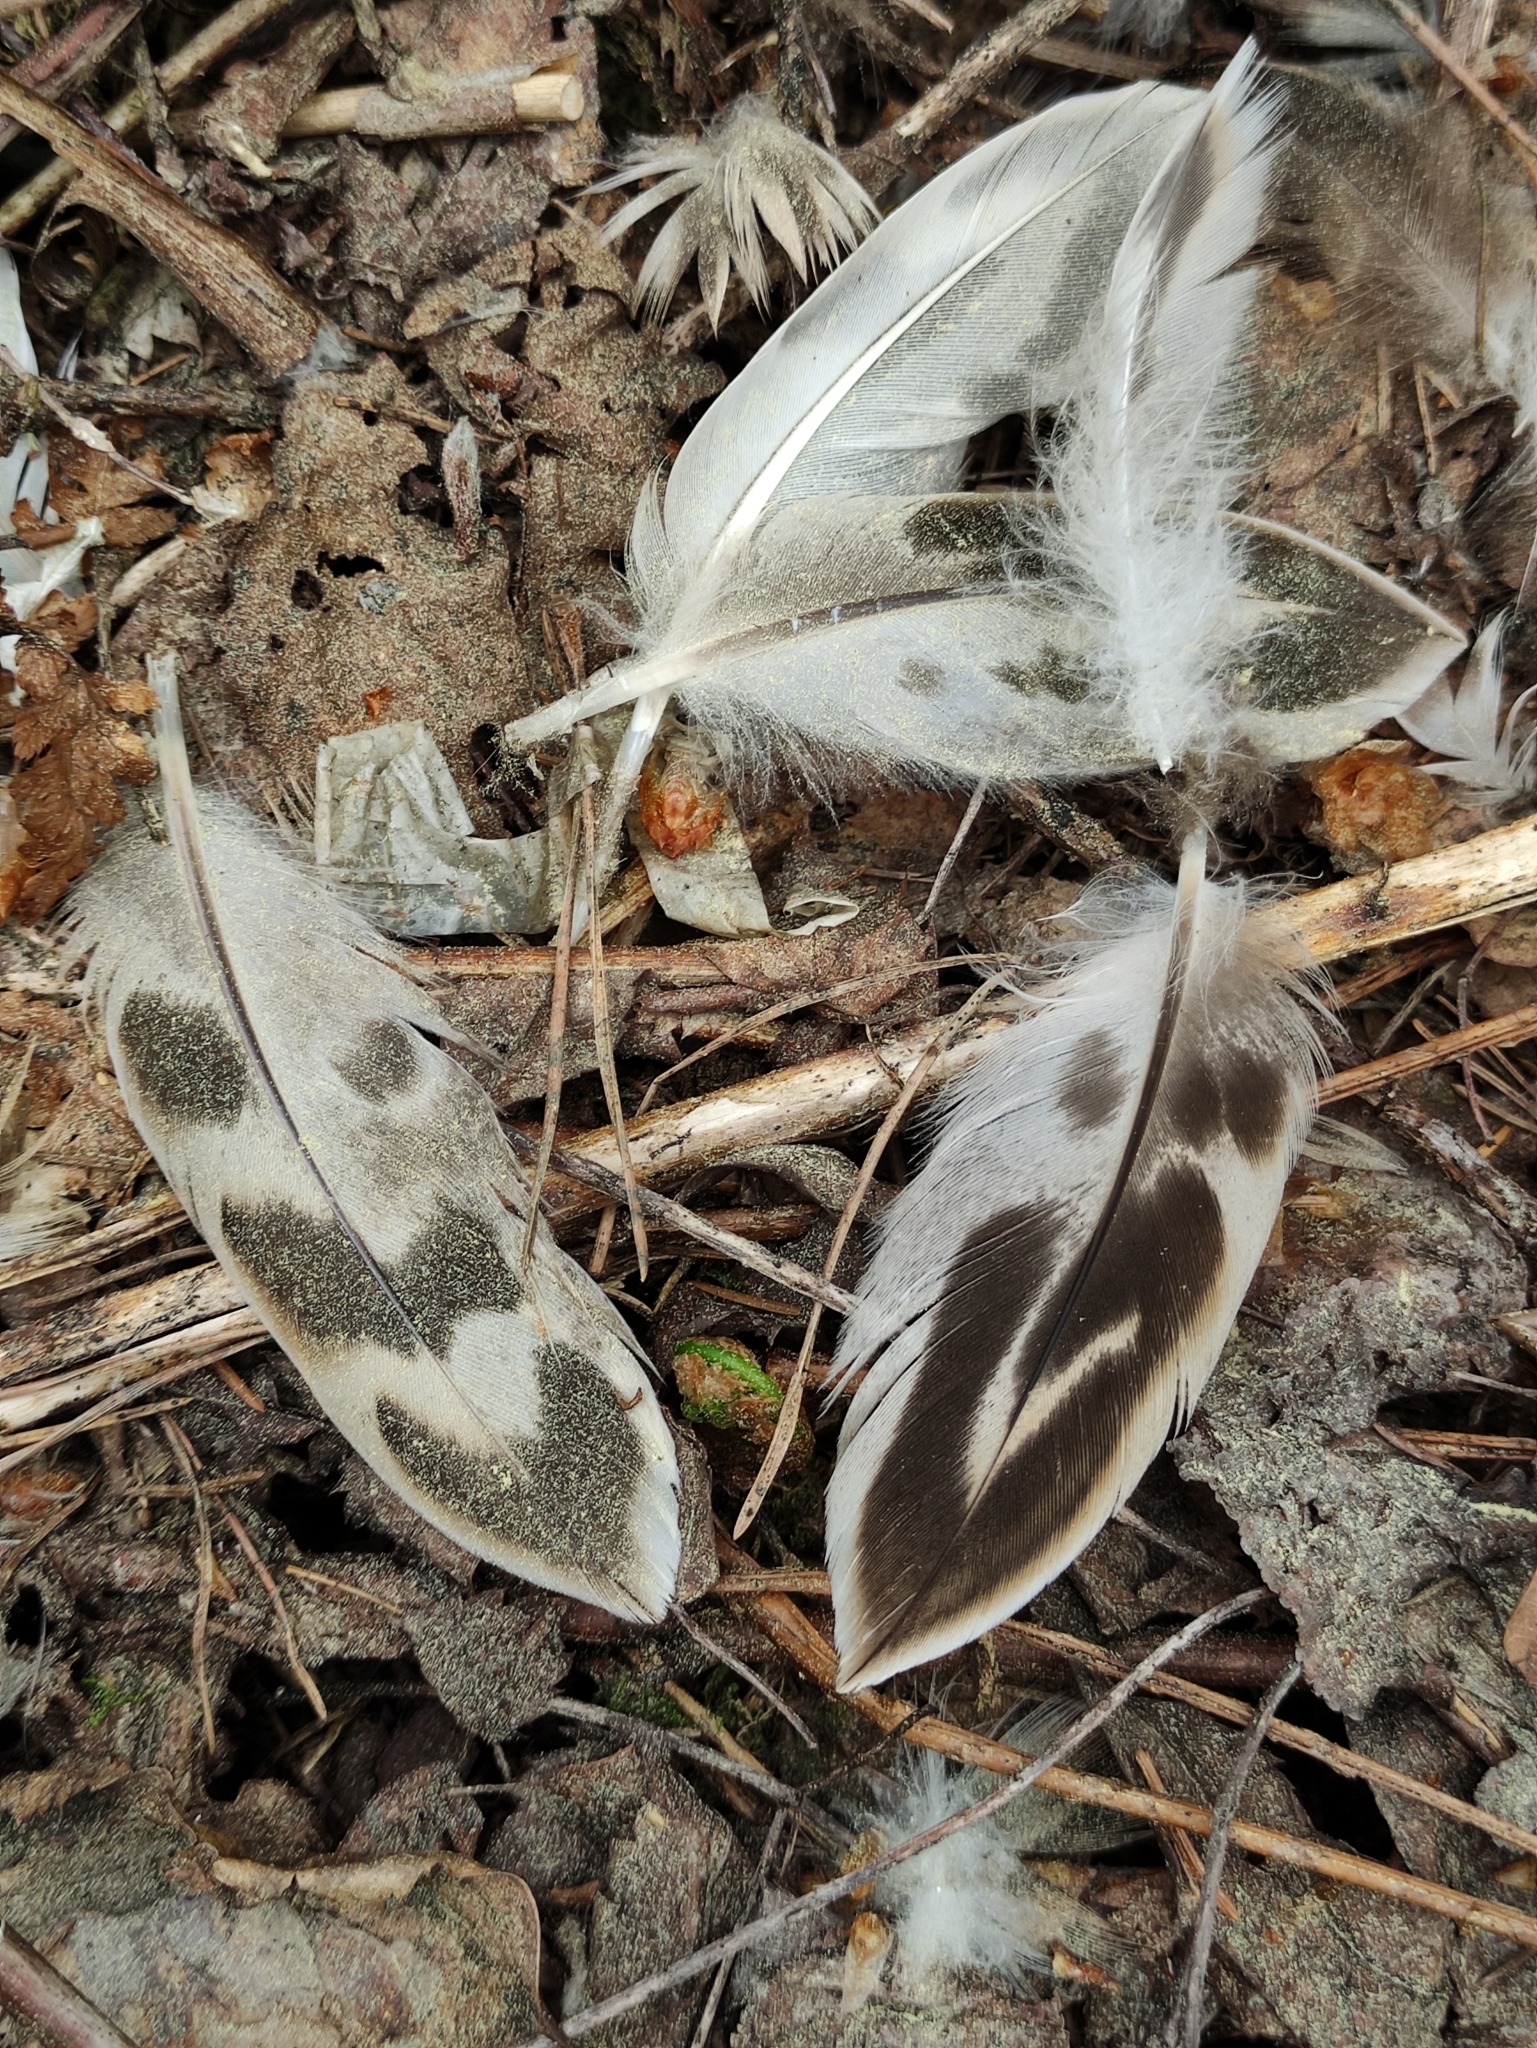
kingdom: Animalia
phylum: Chordata
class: Aves
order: Anseriformes
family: Anatidae
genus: Anas
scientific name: Anas platyrhynchos
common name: Mallard
